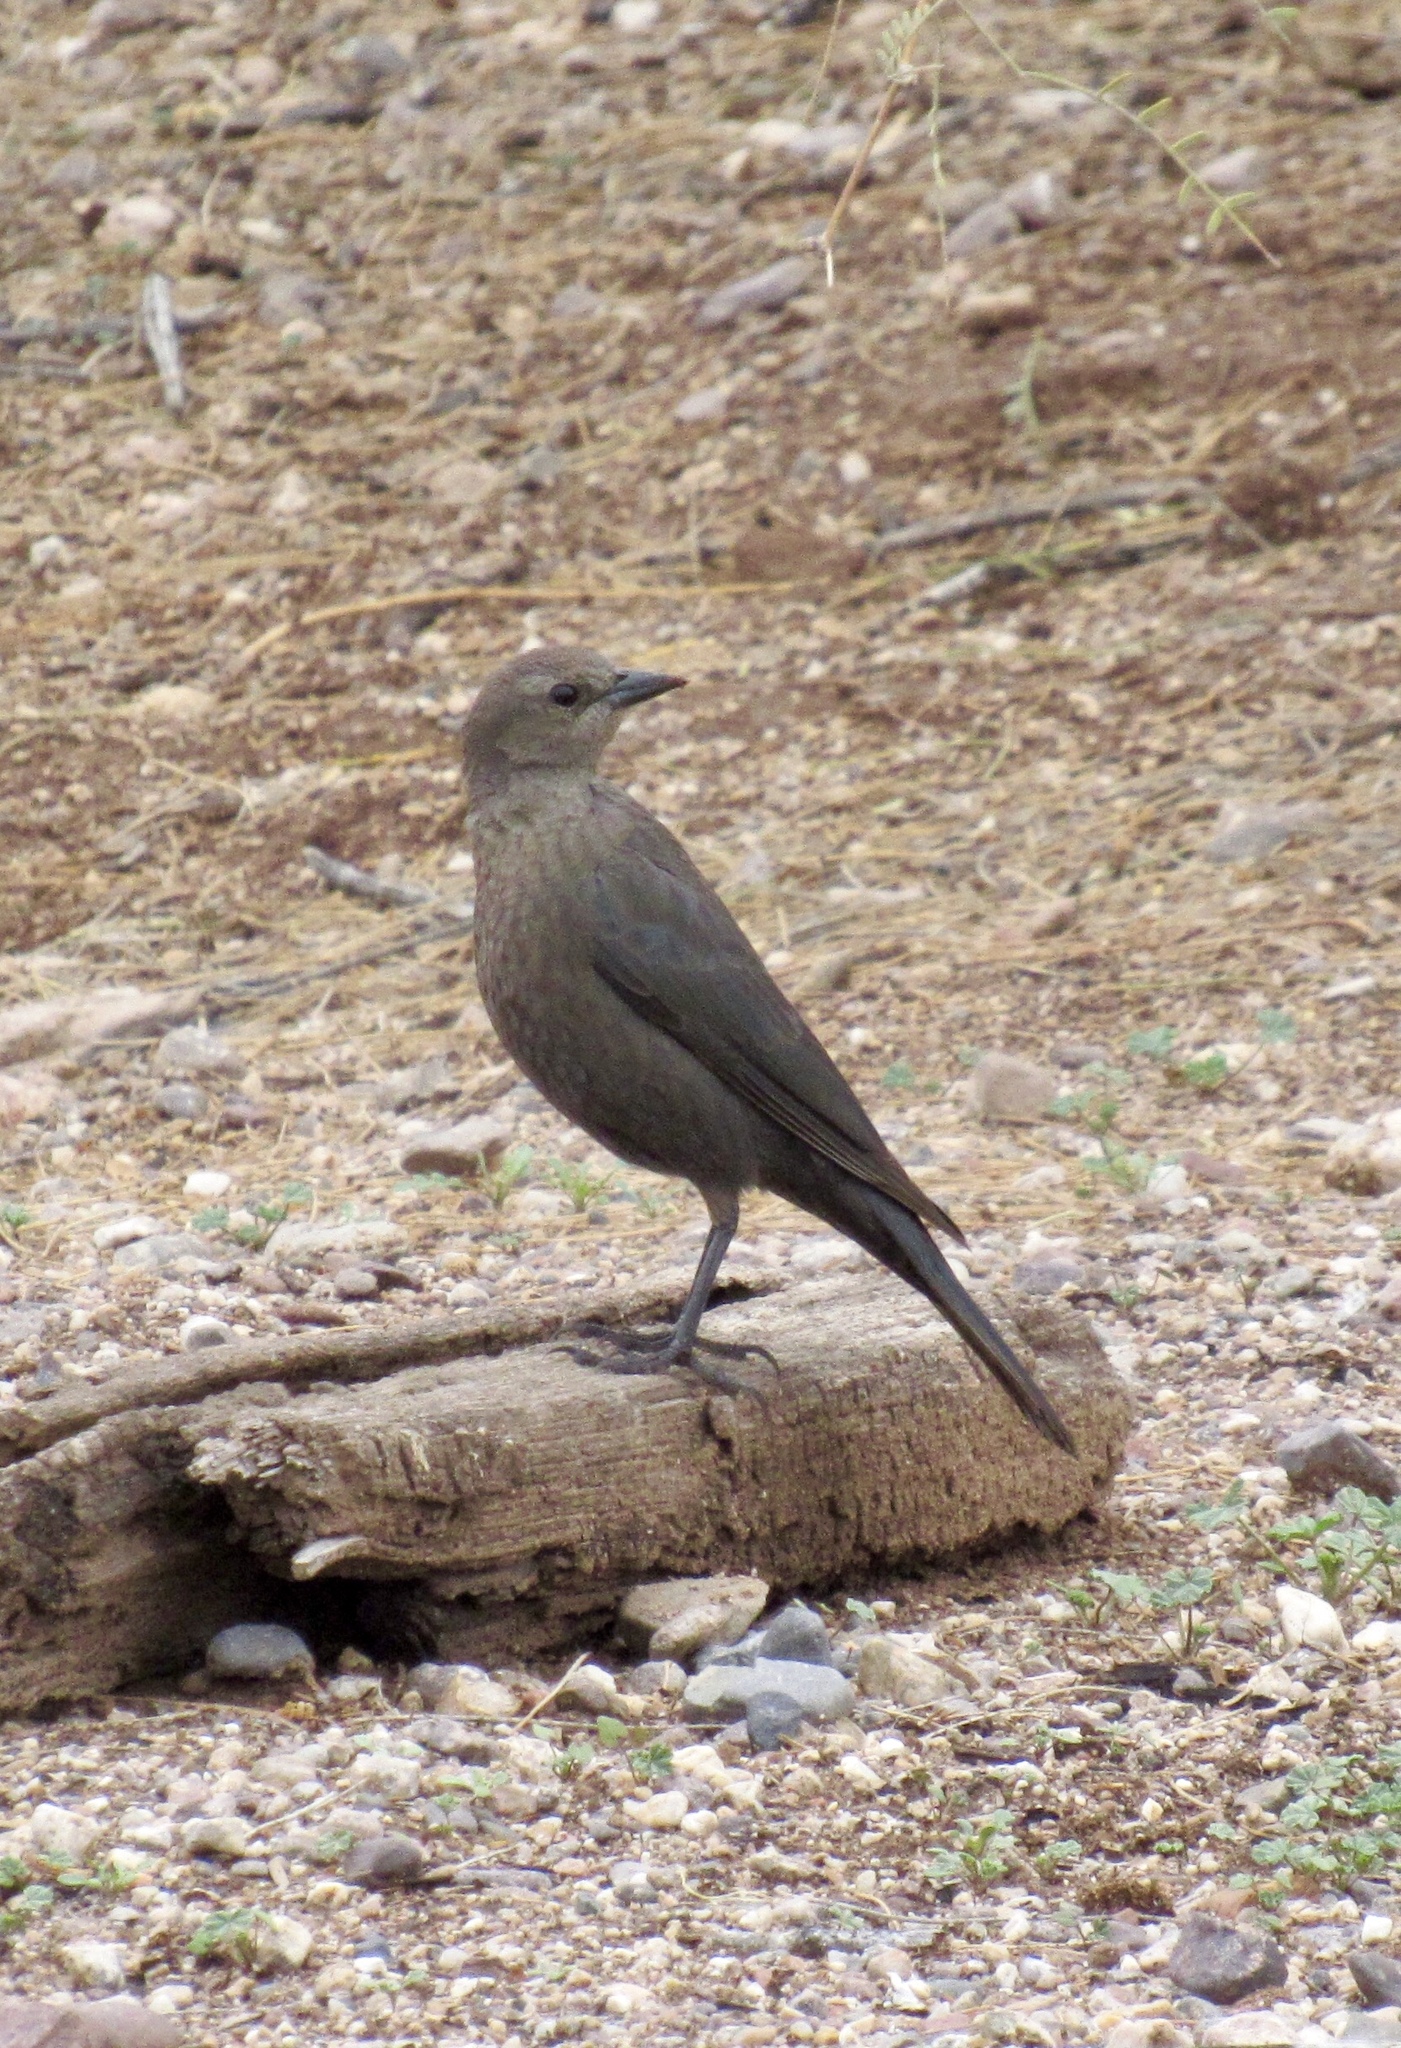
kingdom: Animalia
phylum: Chordata
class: Aves
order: Passeriformes
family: Icteridae
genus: Euphagus
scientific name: Euphagus cyanocephalus
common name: Brewer's blackbird
